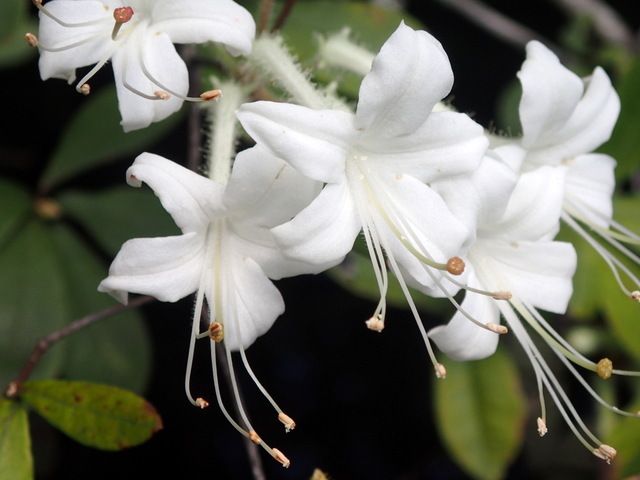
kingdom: Plantae
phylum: Tracheophyta
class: Magnoliopsida
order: Ericales
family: Ericaceae
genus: Rhododendron
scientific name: Rhododendron serrulatum
